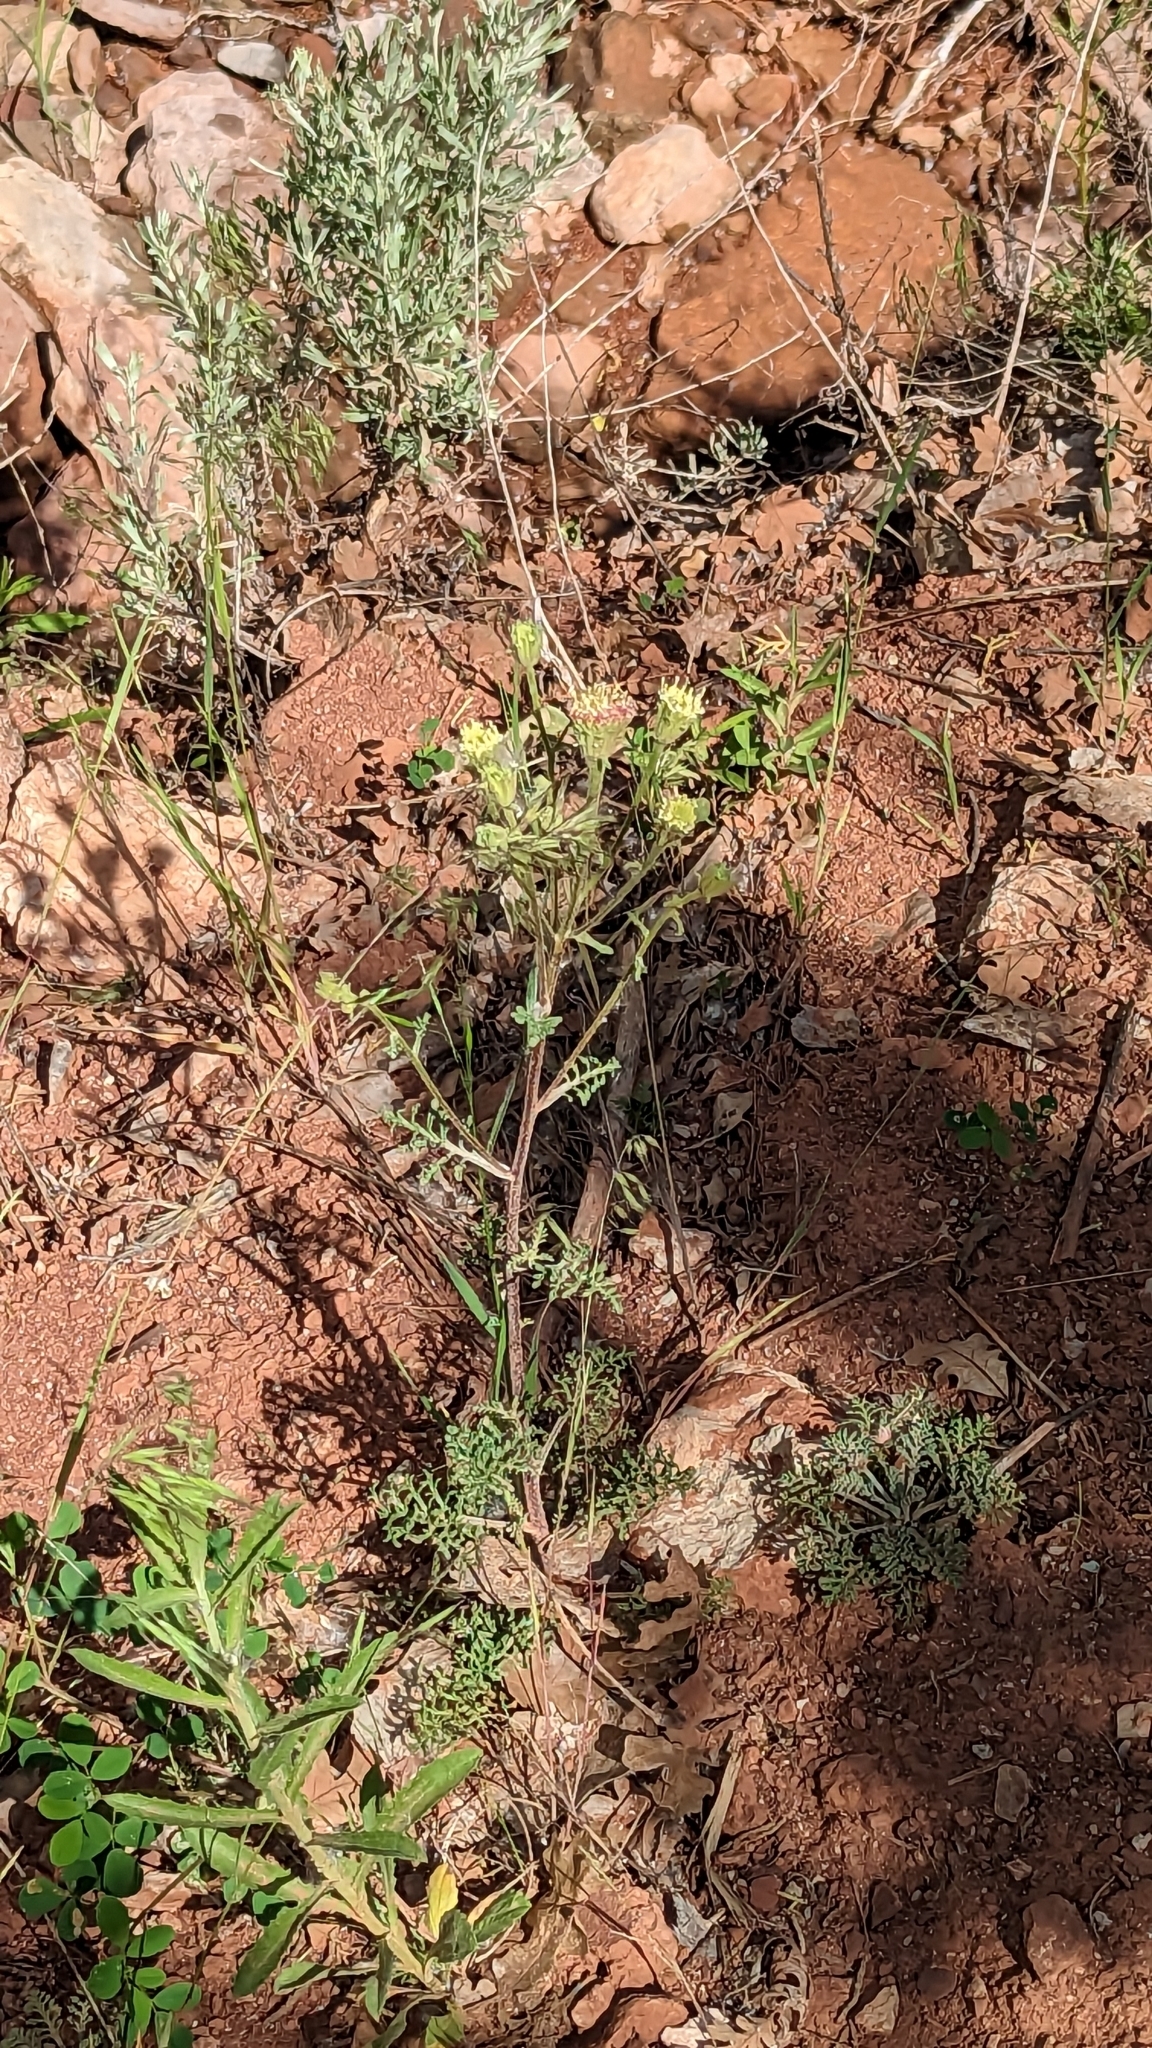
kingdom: Plantae
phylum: Tracheophyta
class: Magnoliopsida
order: Asterales
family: Asteraceae
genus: Chaenactis
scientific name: Chaenactis douglasii
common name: Hoary pincushion
